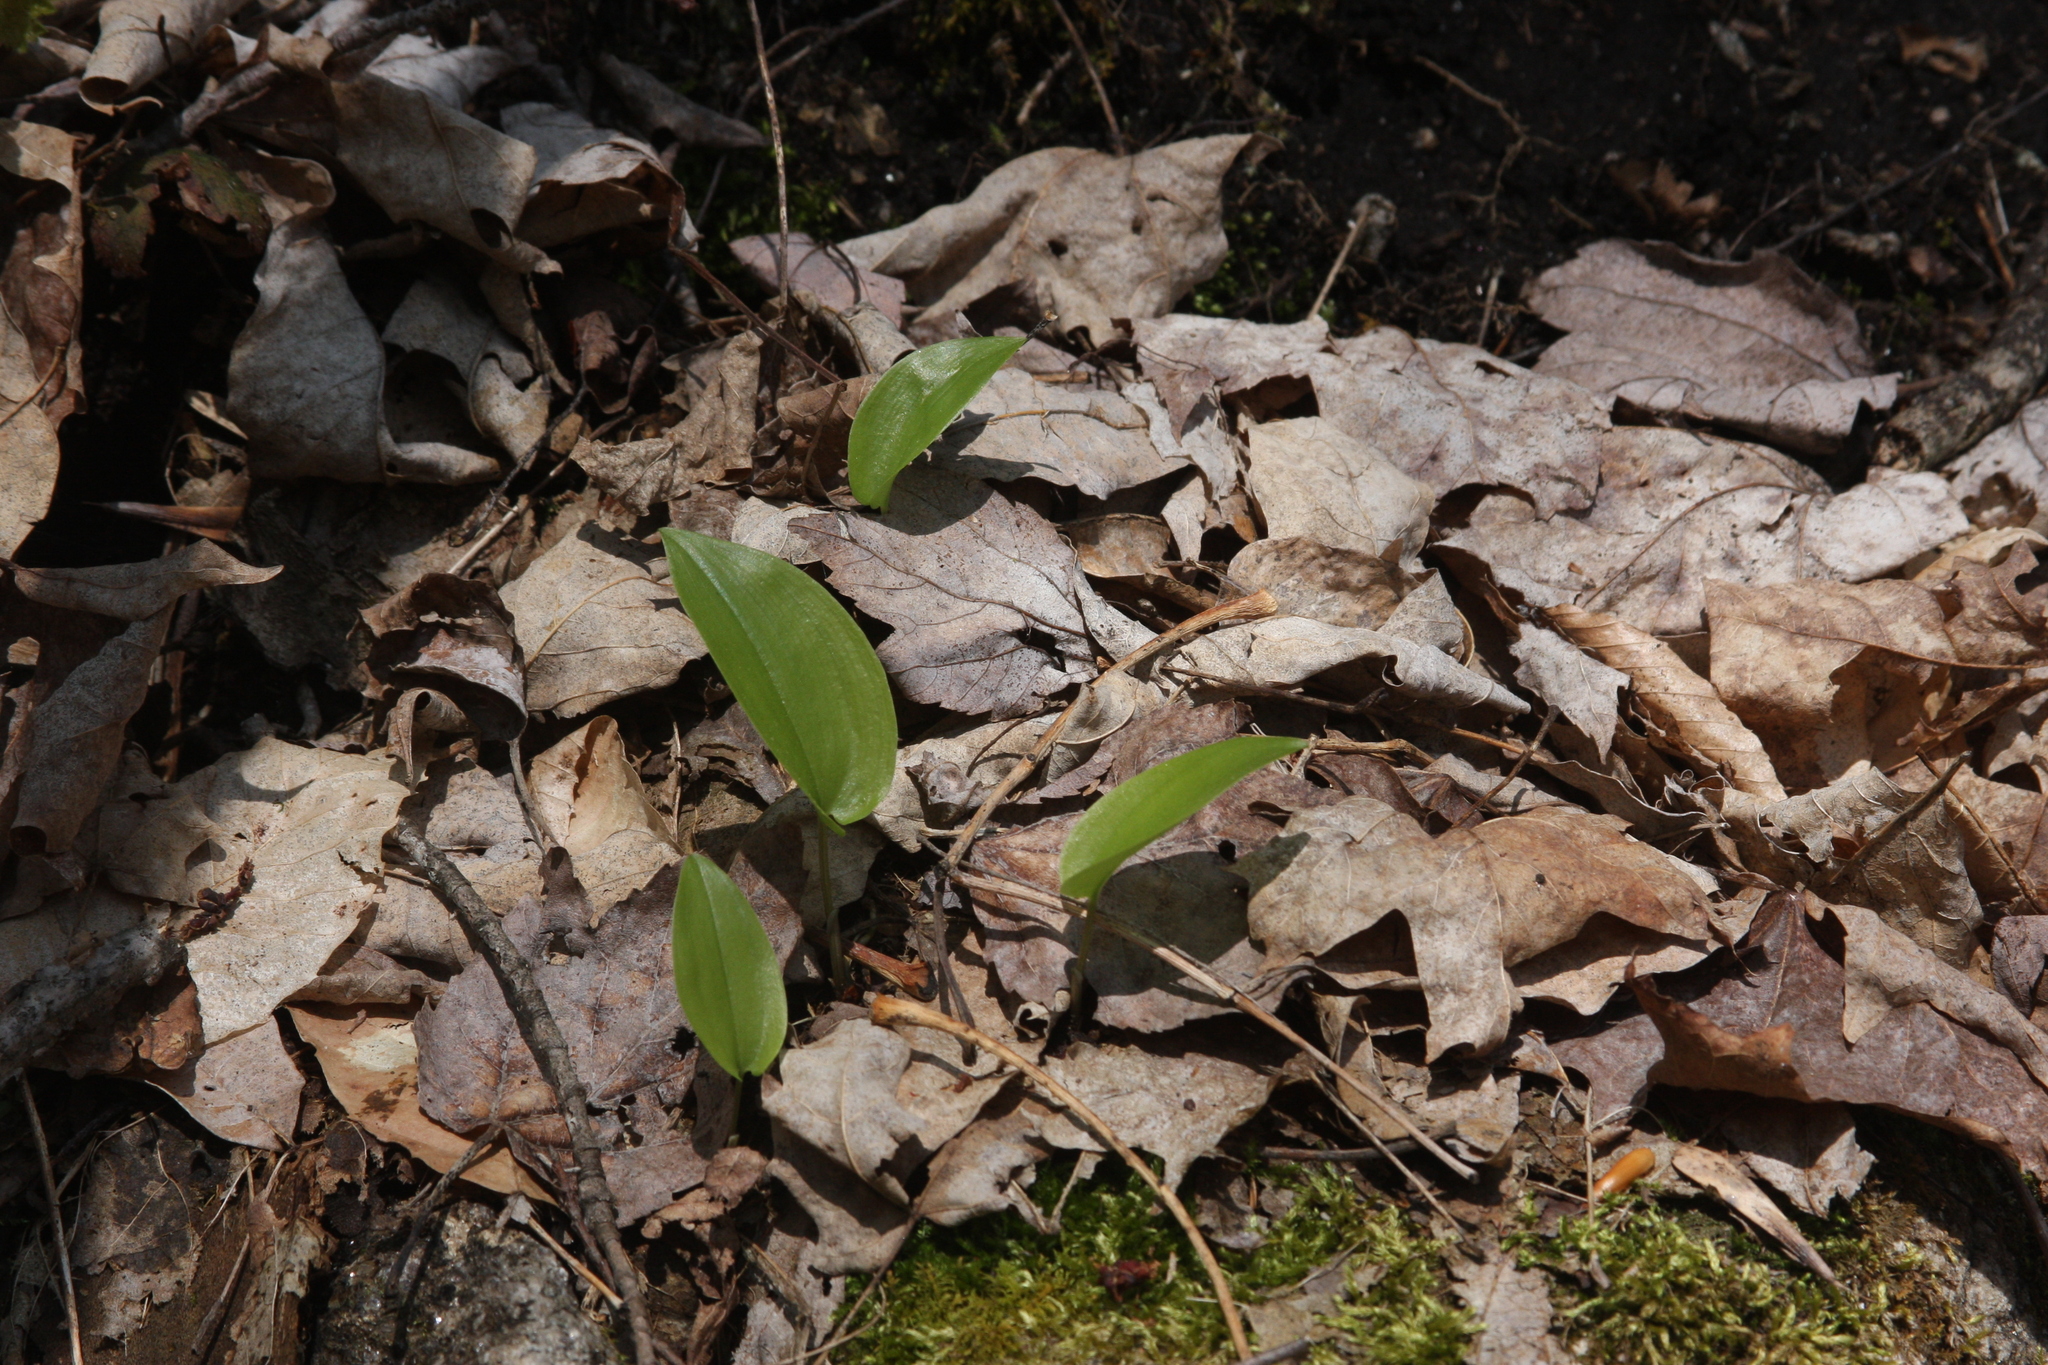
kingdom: Plantae
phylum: Tracheophyta
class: Liliopsida
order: Asparagales
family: Asparagaceae
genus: Maianthemum
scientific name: Maianthemum canadense
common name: False lily-of-the-valley
